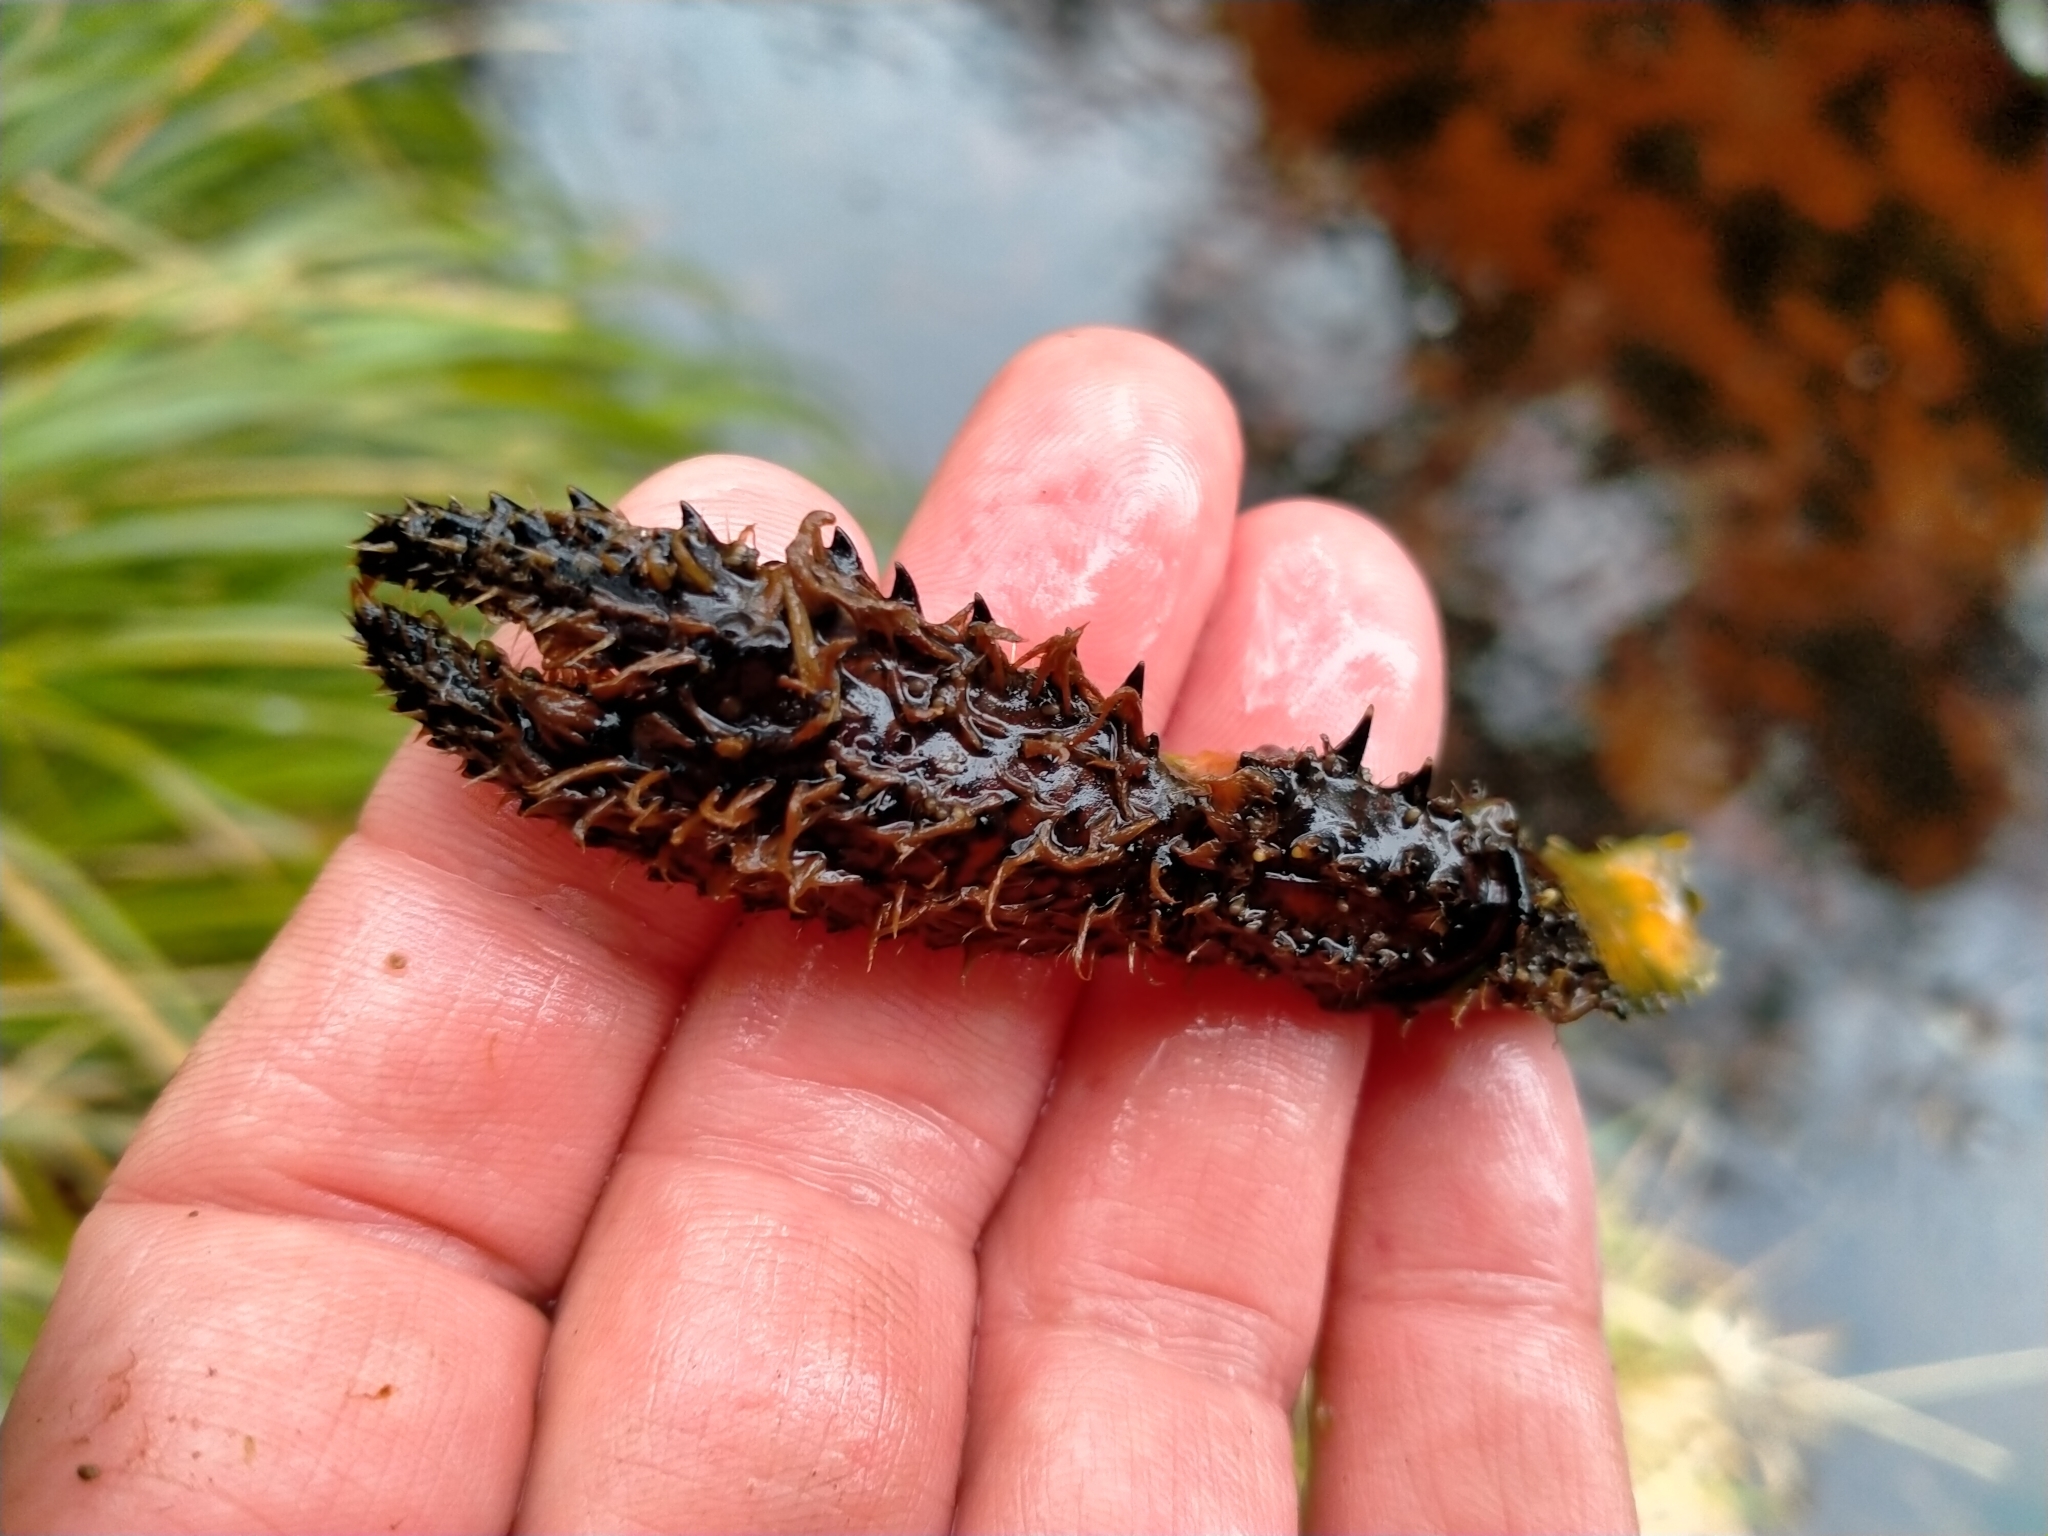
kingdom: Animalia
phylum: Arthropoda
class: Malacostraca
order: Decapoda
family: Parastacidae
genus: Paranephrops
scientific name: Paranephrops zealandicus
